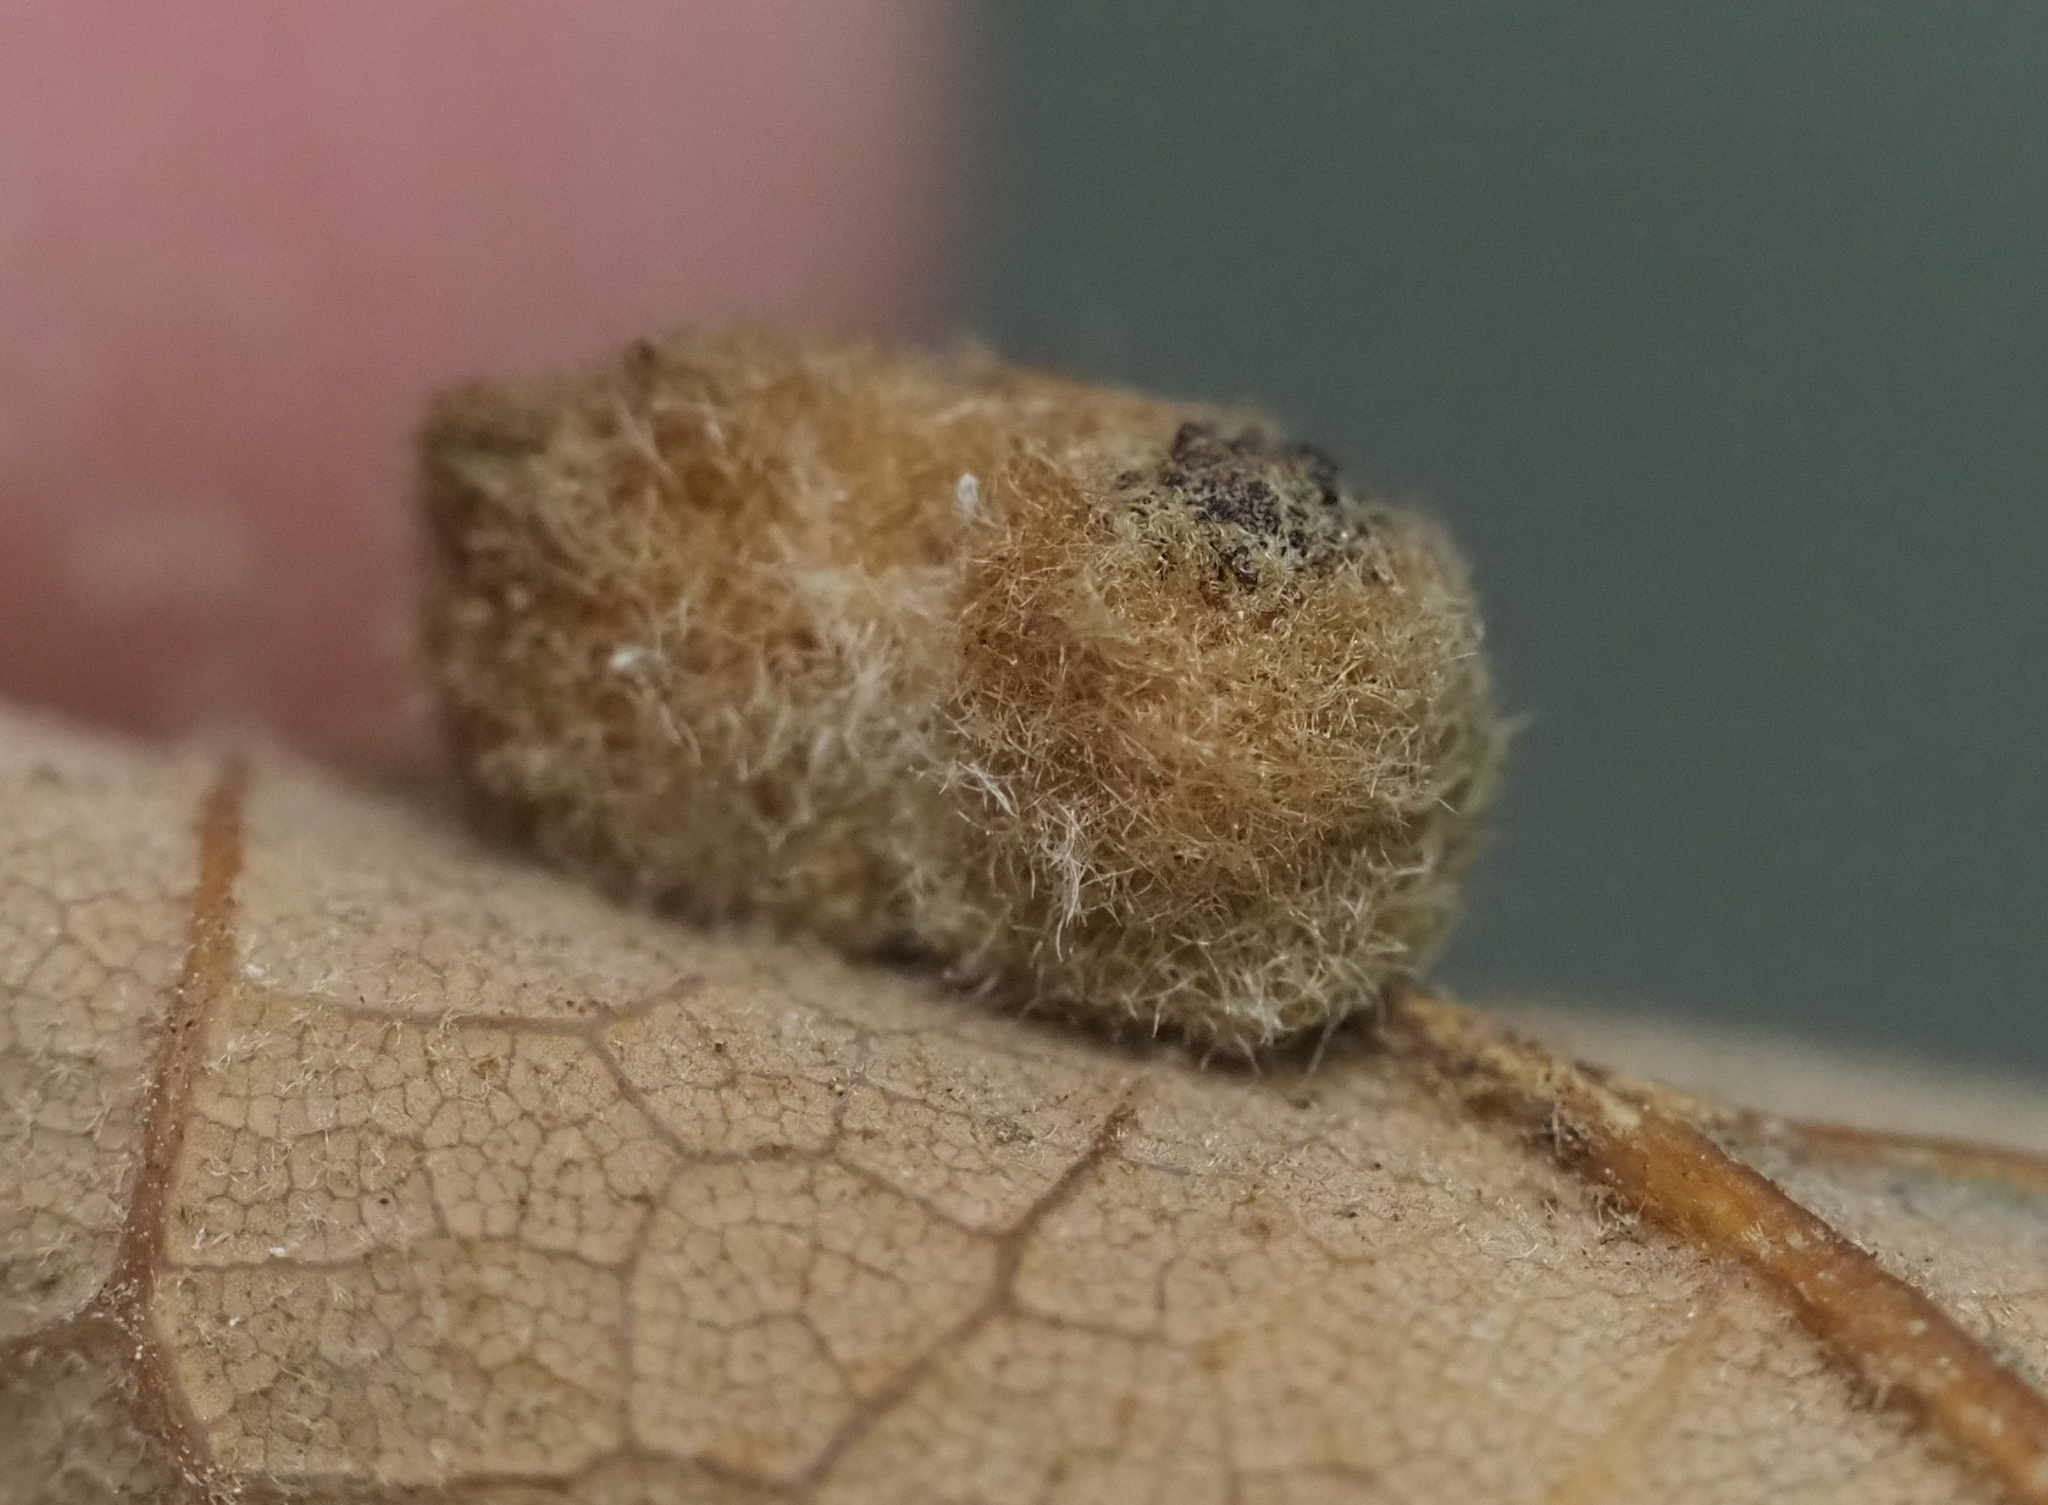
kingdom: Animalia
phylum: Arthropoda
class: Insecta
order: Hymenoptera
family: Cynipidae
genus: Andricus
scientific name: Andricus Druon pattoni
